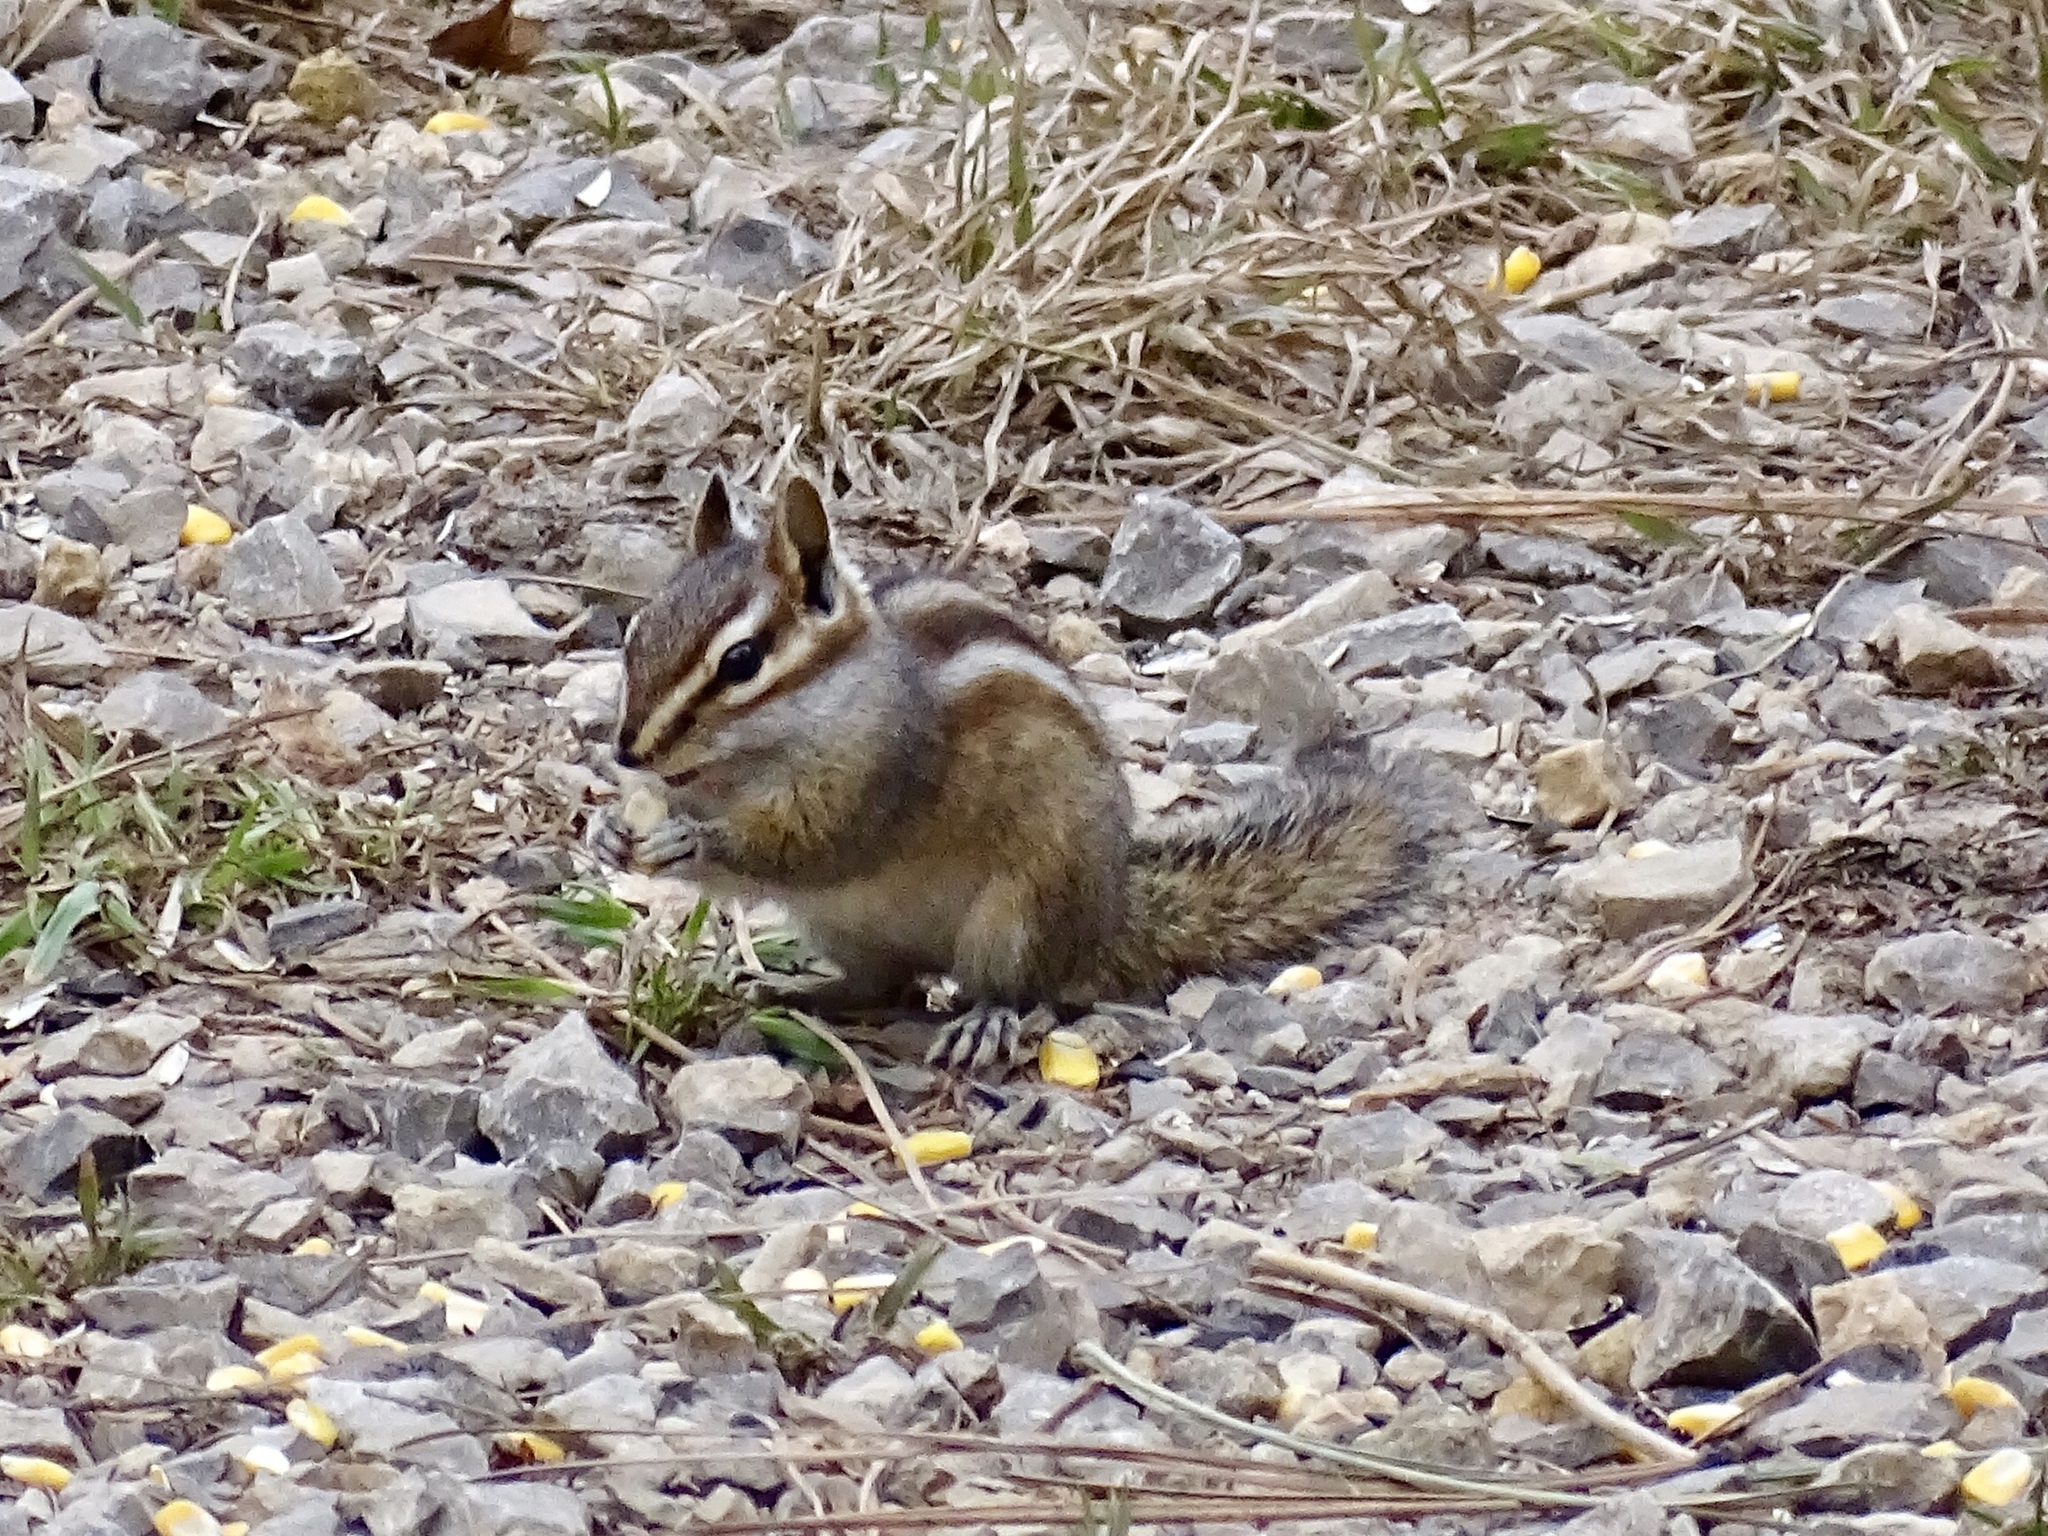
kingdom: Animalia
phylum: Chordata
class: Mammalia
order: Rodentia
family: Sciuridae
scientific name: Sciuridae
